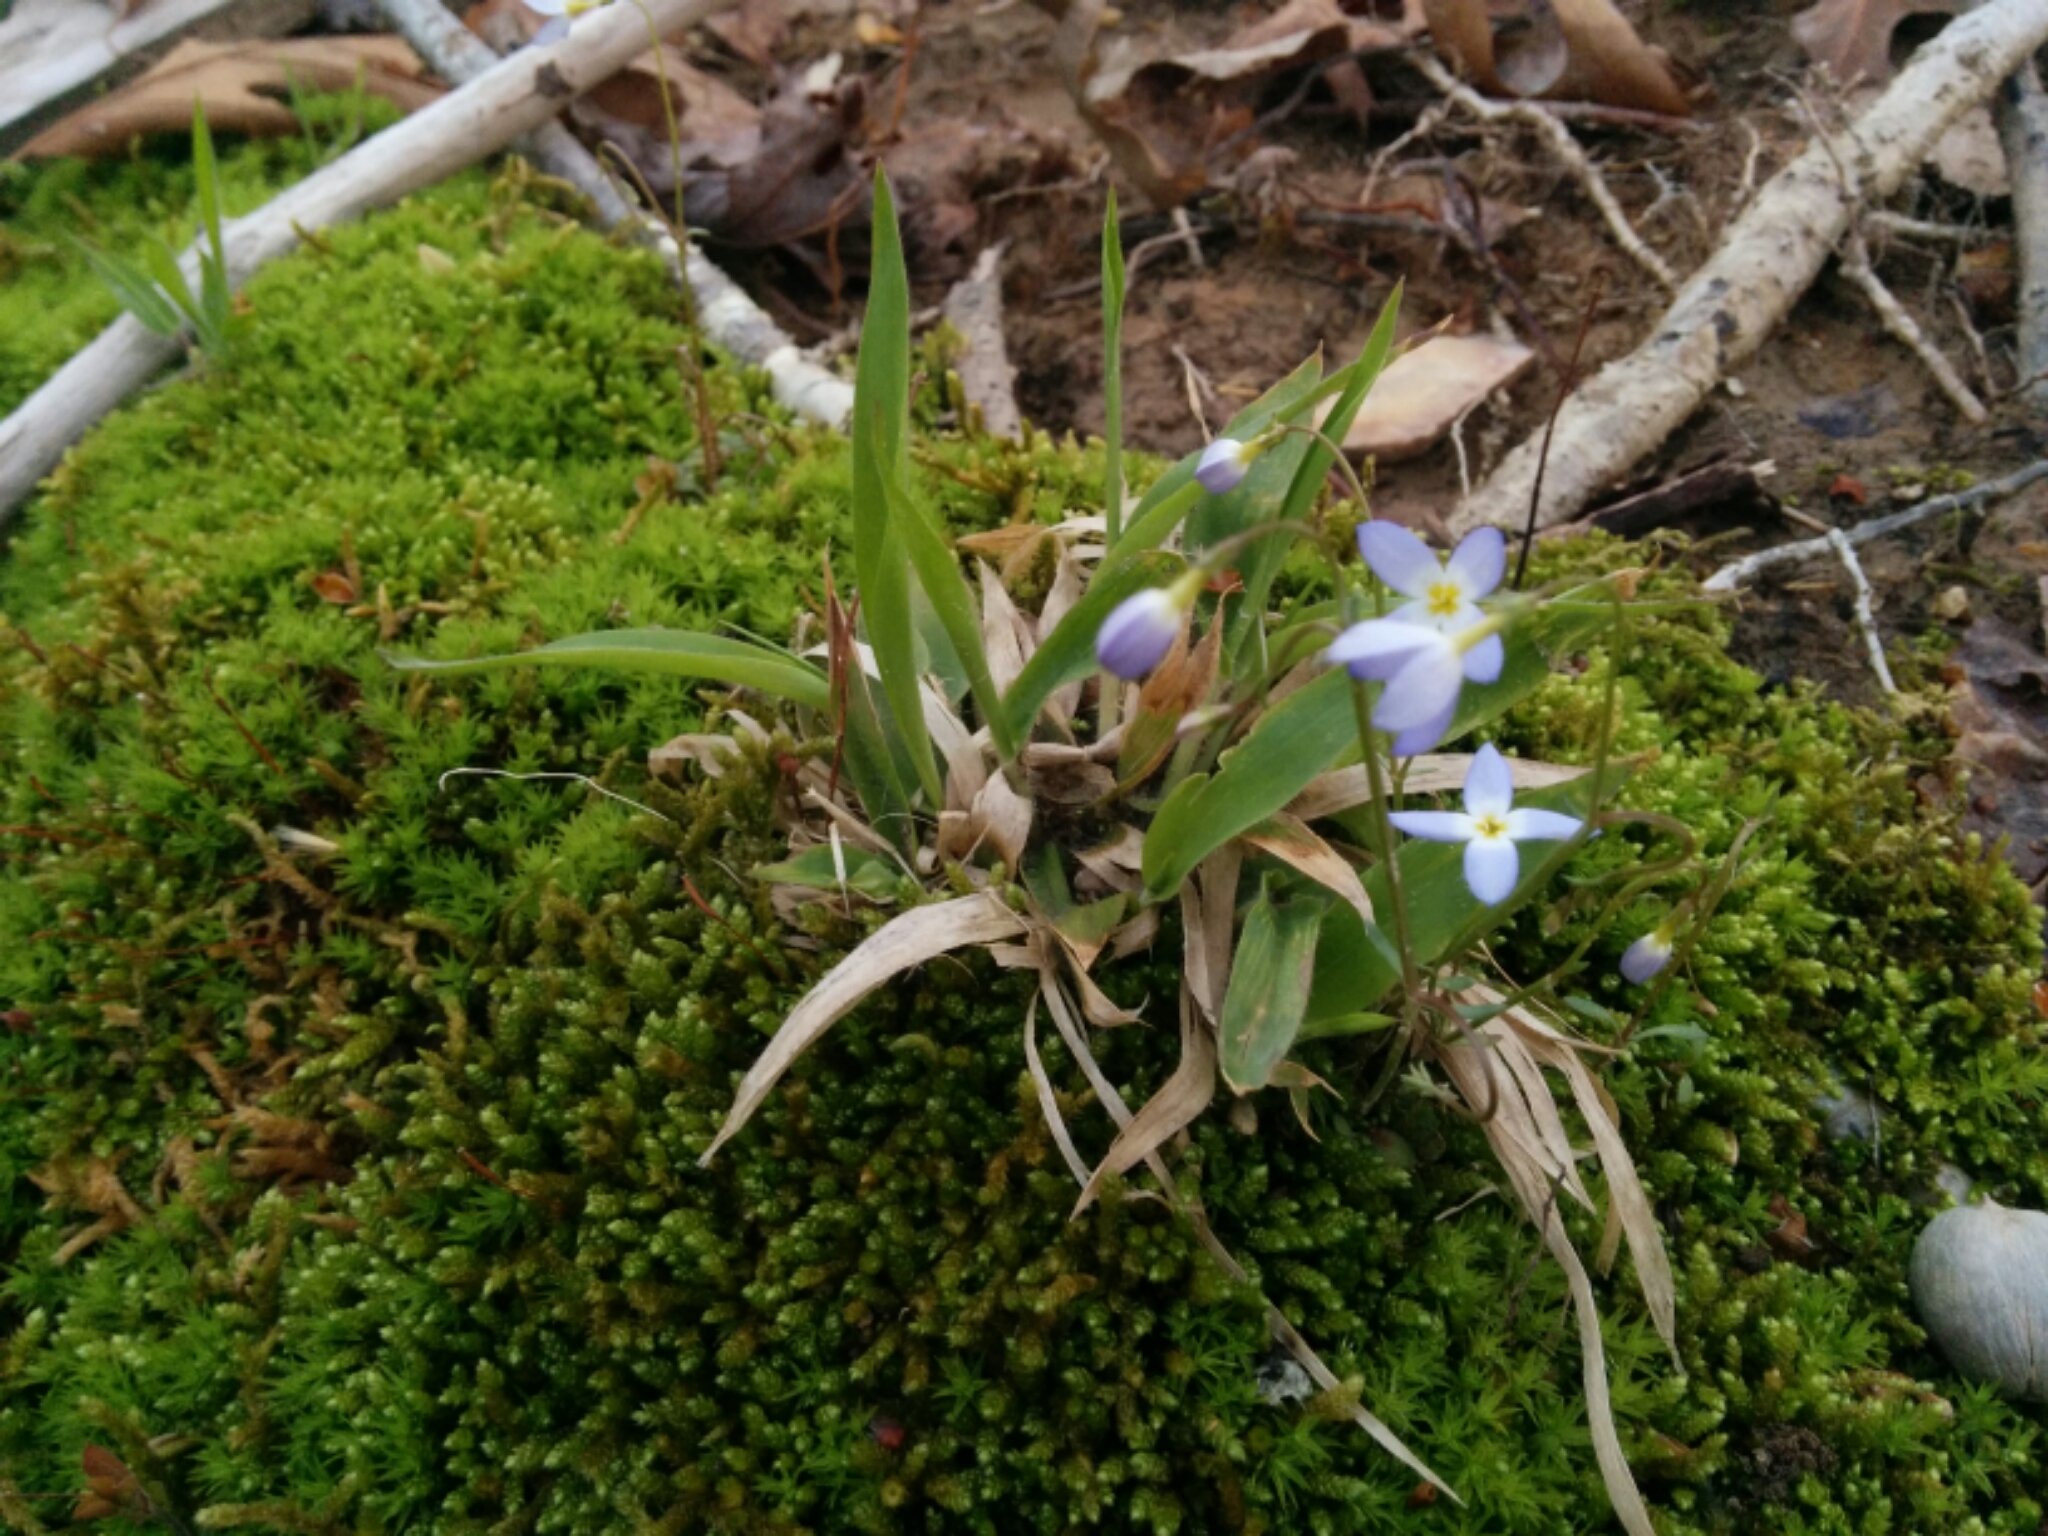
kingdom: Plantae
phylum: Tracheophyta
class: Magnoliopsida
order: Gentianales
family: Rubiaceae
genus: Houstonia
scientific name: Houstonia caerulea
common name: Bluets
